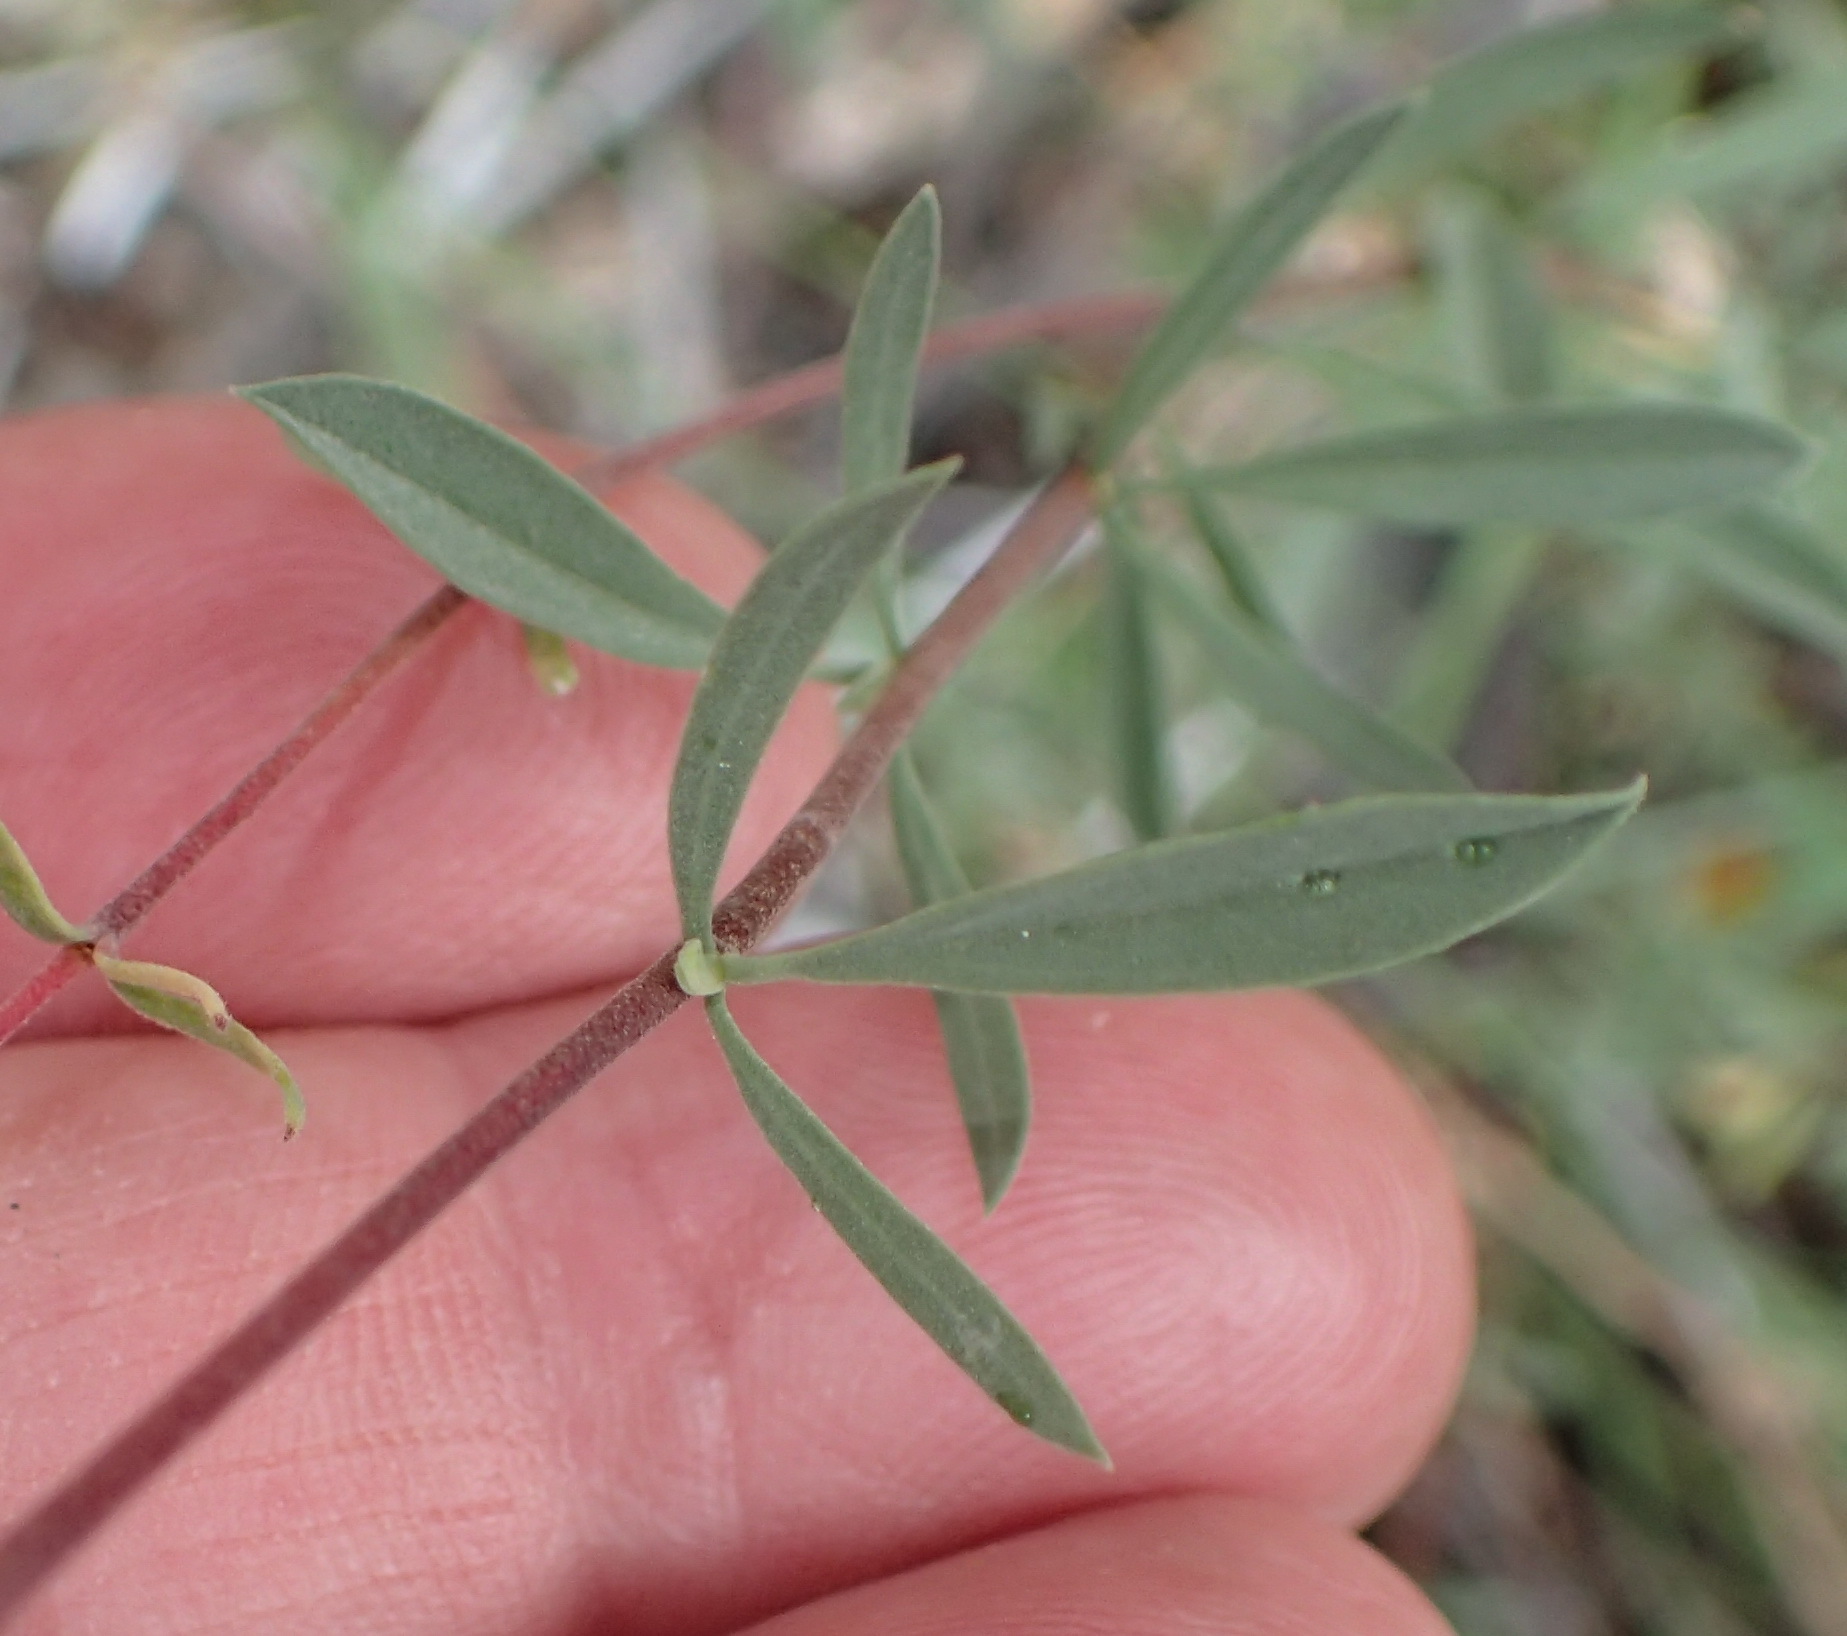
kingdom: Plantae
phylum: Tracheophyta
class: Magnoliopsida
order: Malvales
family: Malvaceae
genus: Hermannia
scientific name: Hermannia gracilis
